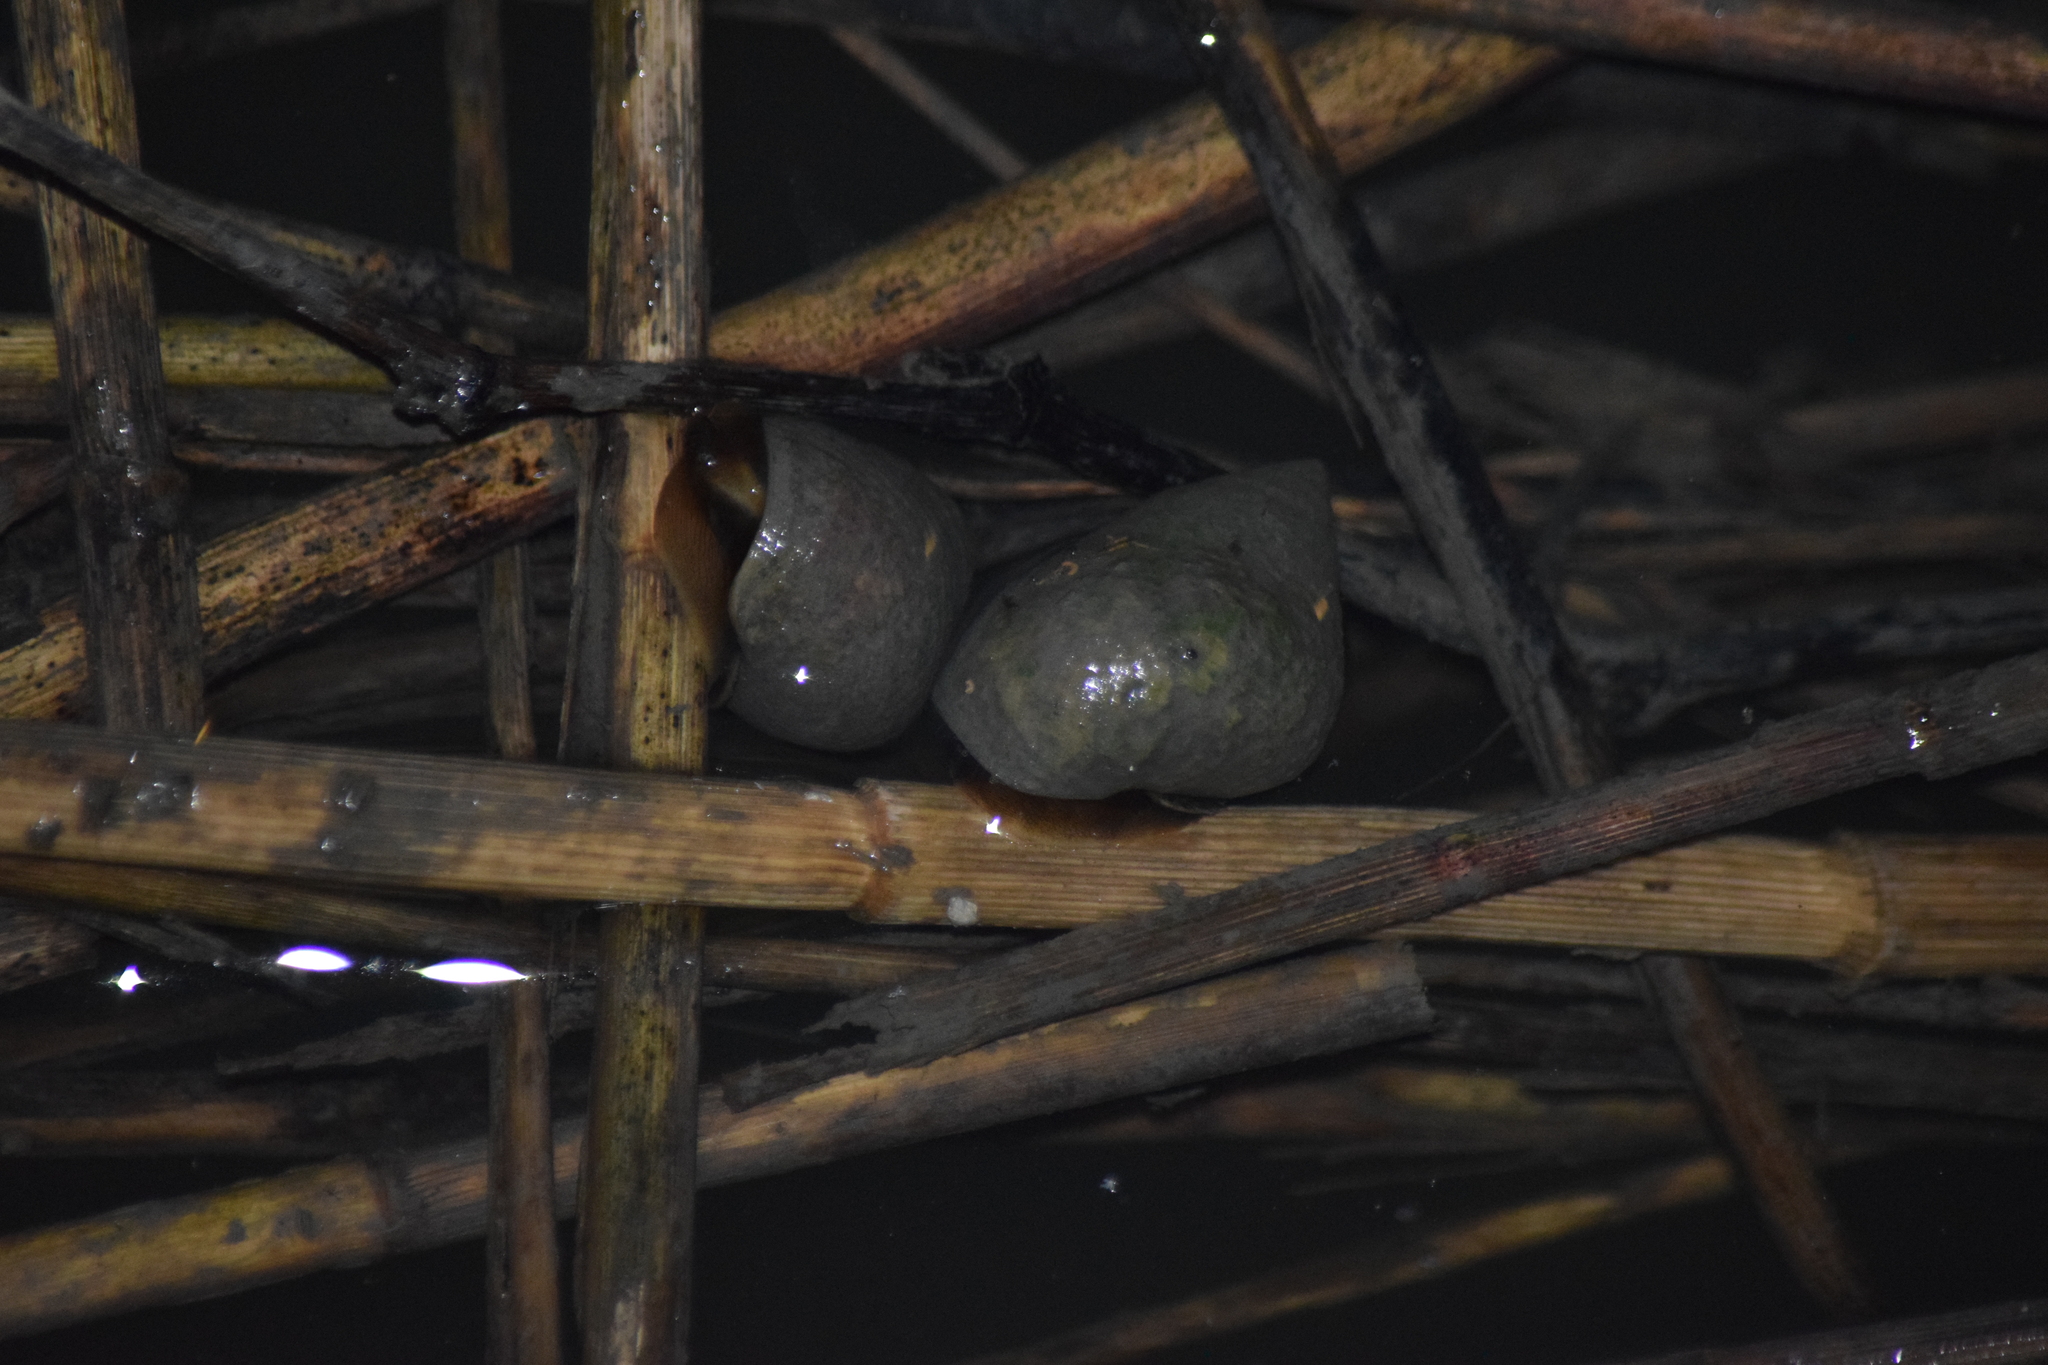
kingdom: Animalia
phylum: Mollusca
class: Gastropoda
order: Littorinimorpha
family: Littorinidae
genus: Littoraria
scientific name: Littoraria irrorata
